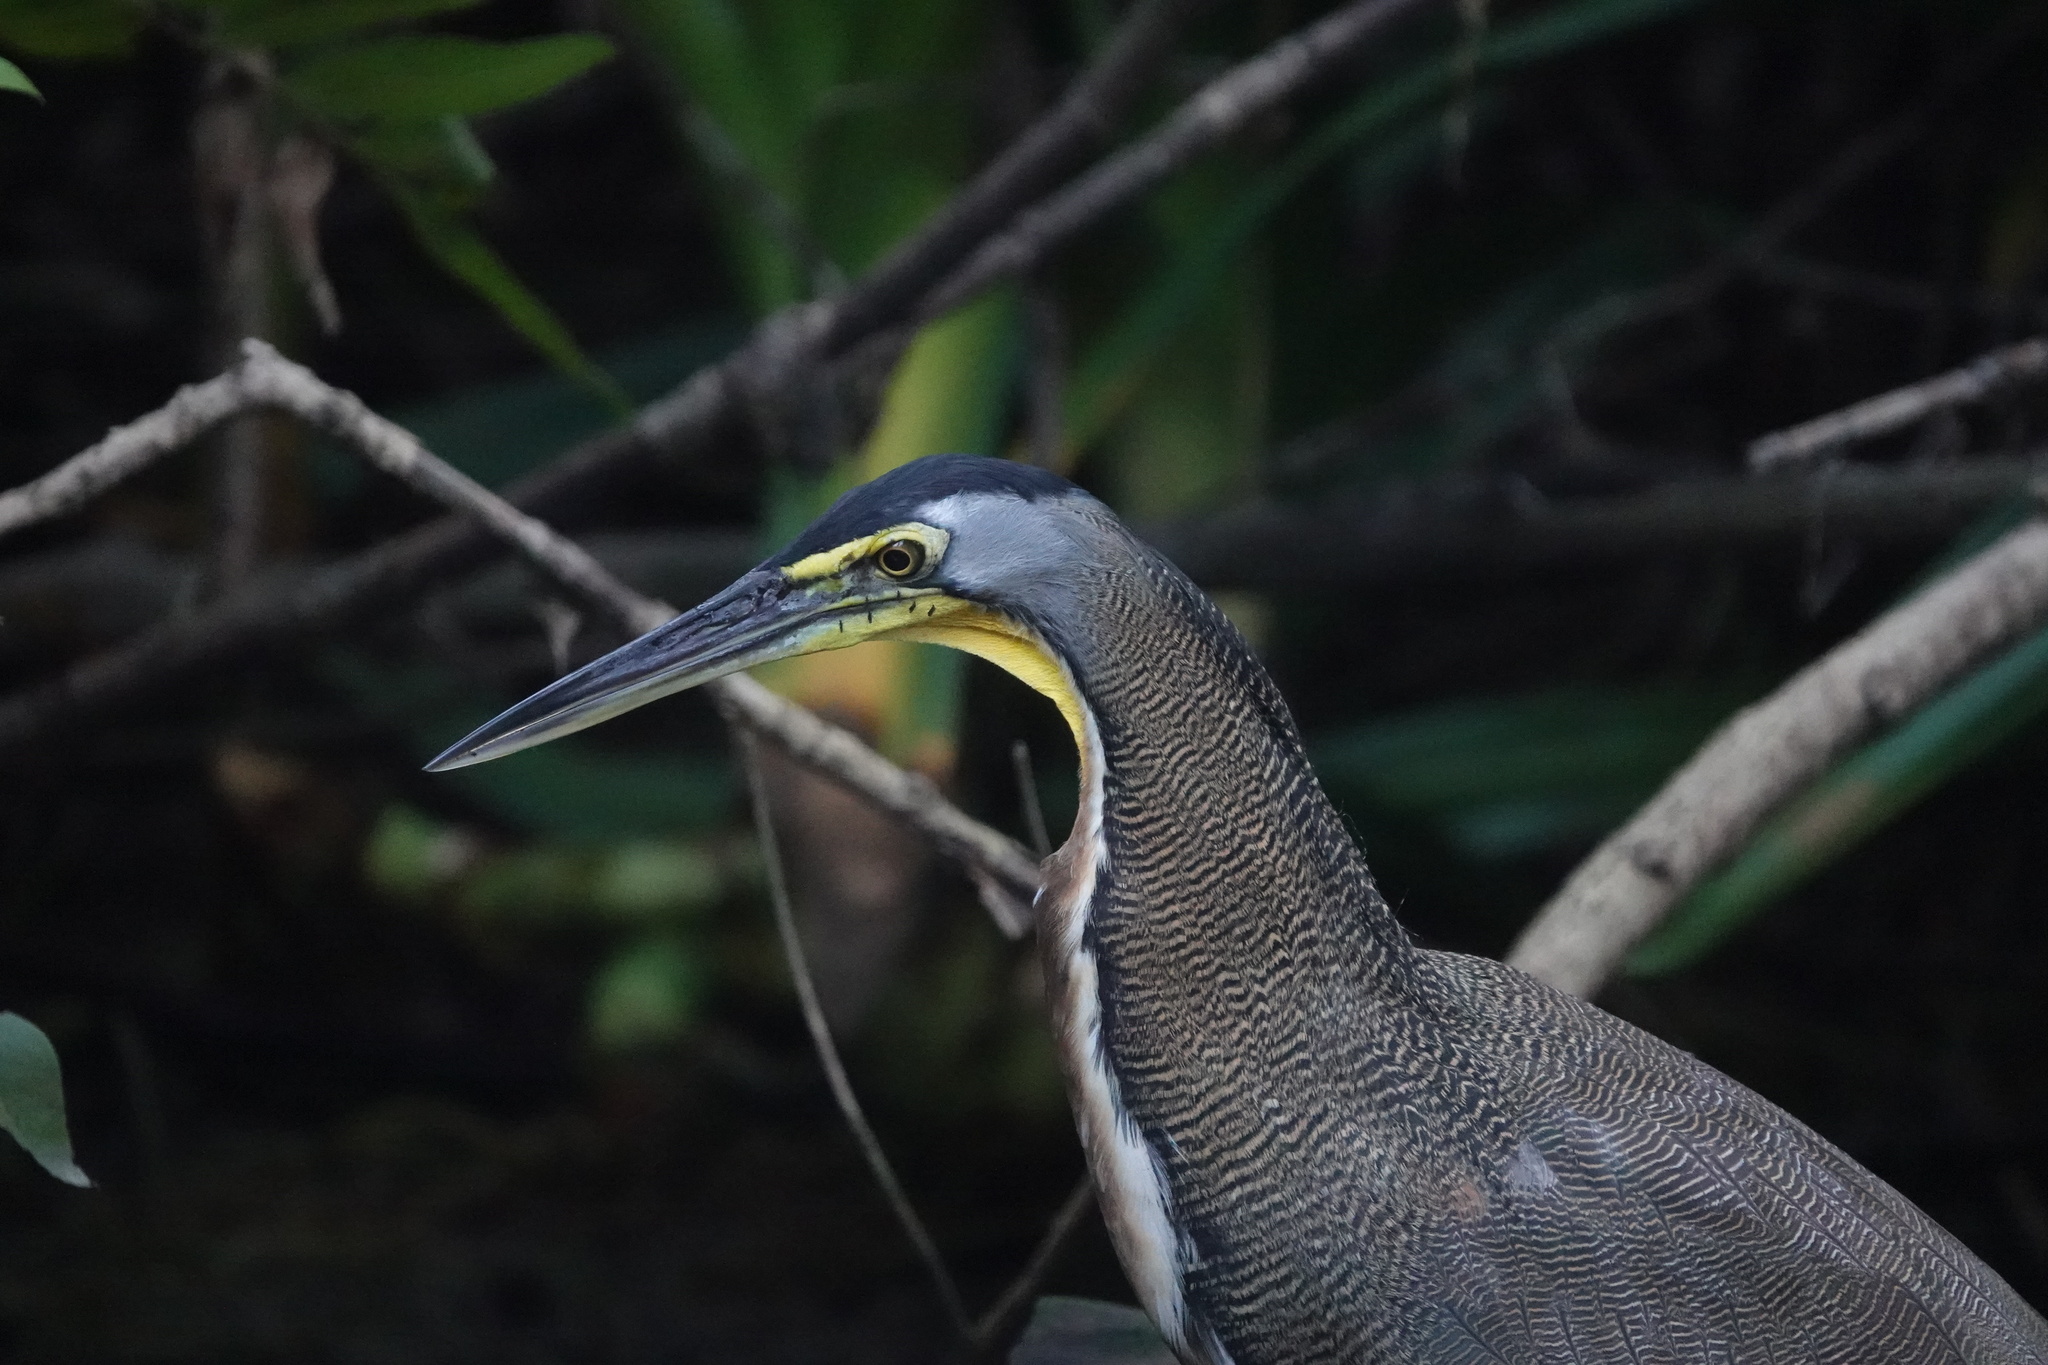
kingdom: Animalia
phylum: Chordata
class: Aves
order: Pelecaniformes
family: Ardeidae
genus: Tigrisoma
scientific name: Tigrisoma mexicanum
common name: Bare-throated tiger-heron
